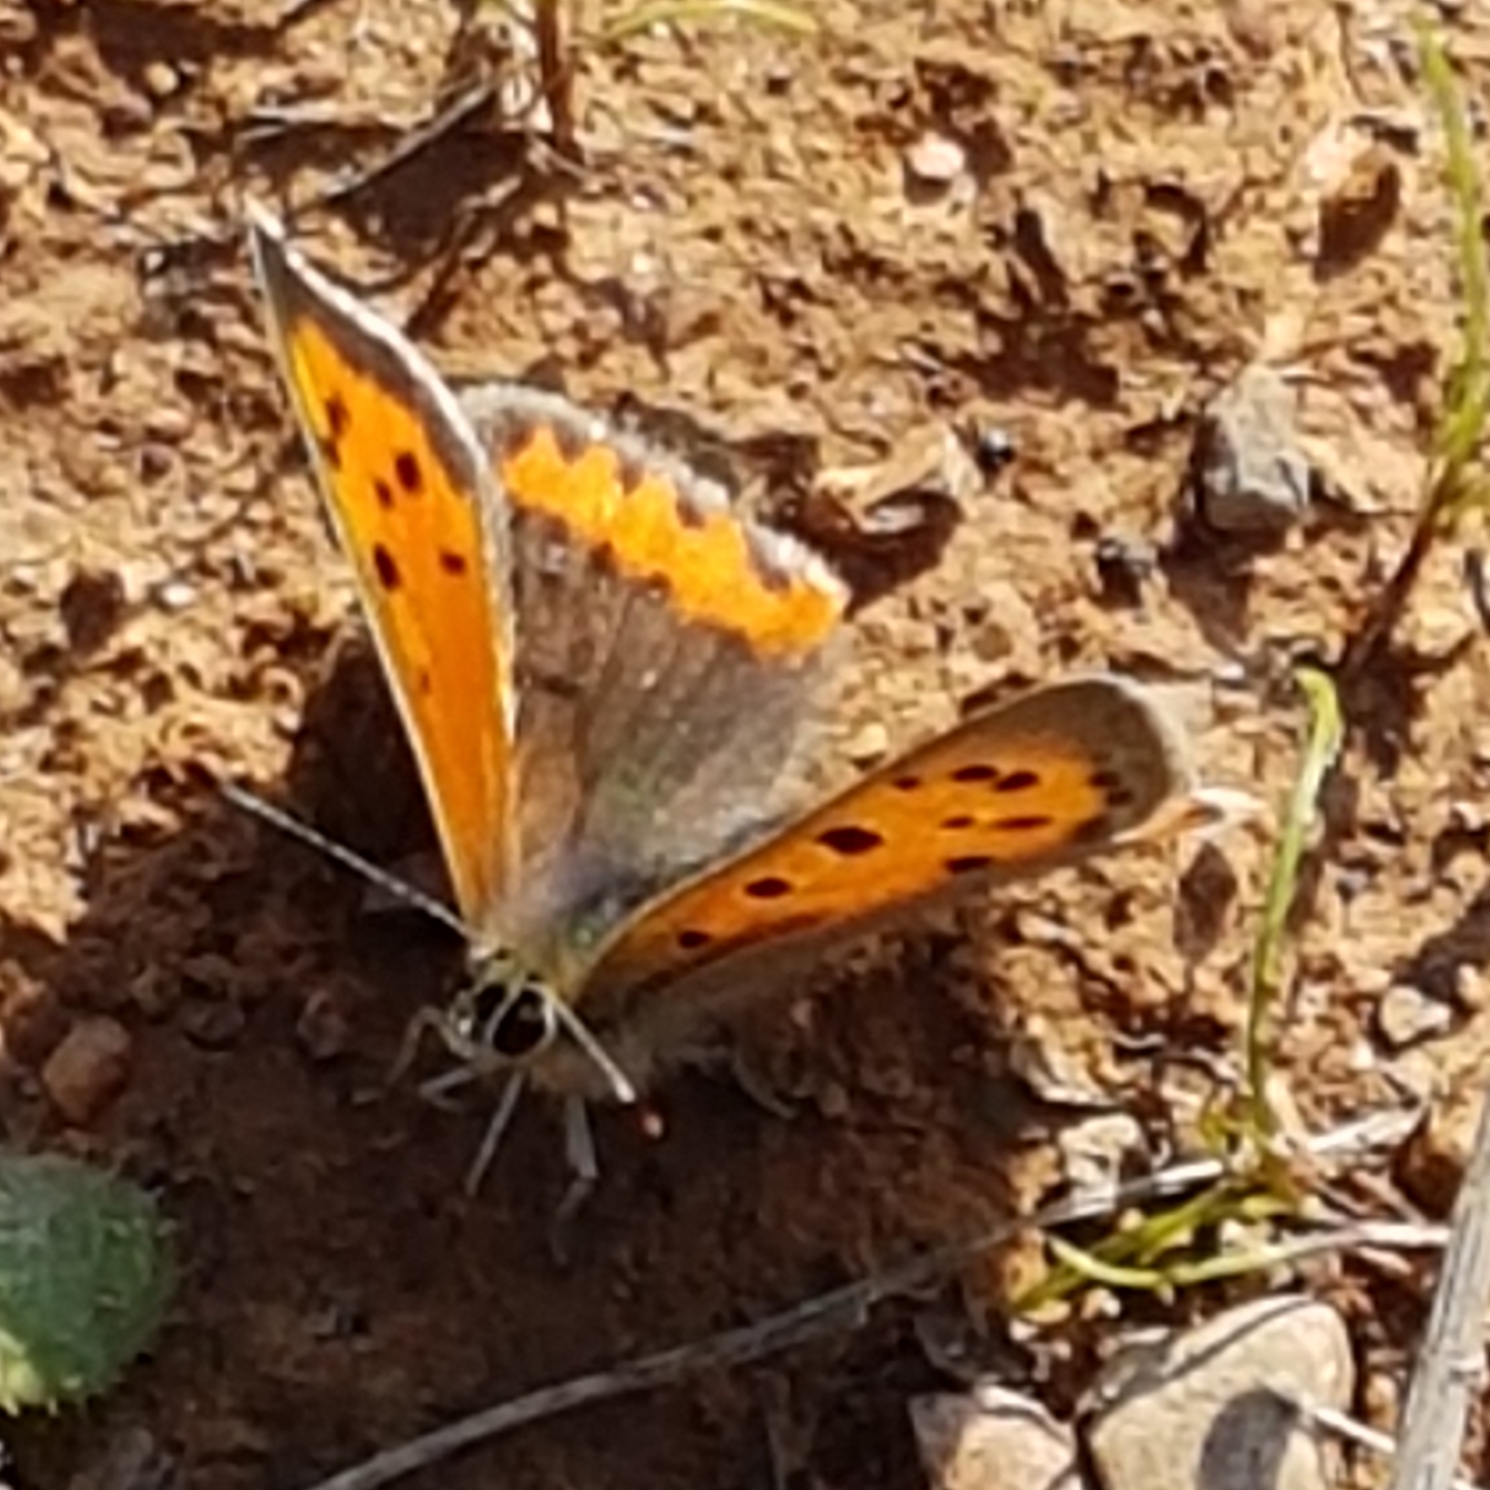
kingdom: Animalia
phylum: Arthropoda
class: Insecta
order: Lepidoptera
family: Lycaenidae
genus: Lycaena
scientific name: Lycaena phlaeas
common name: Small copper
